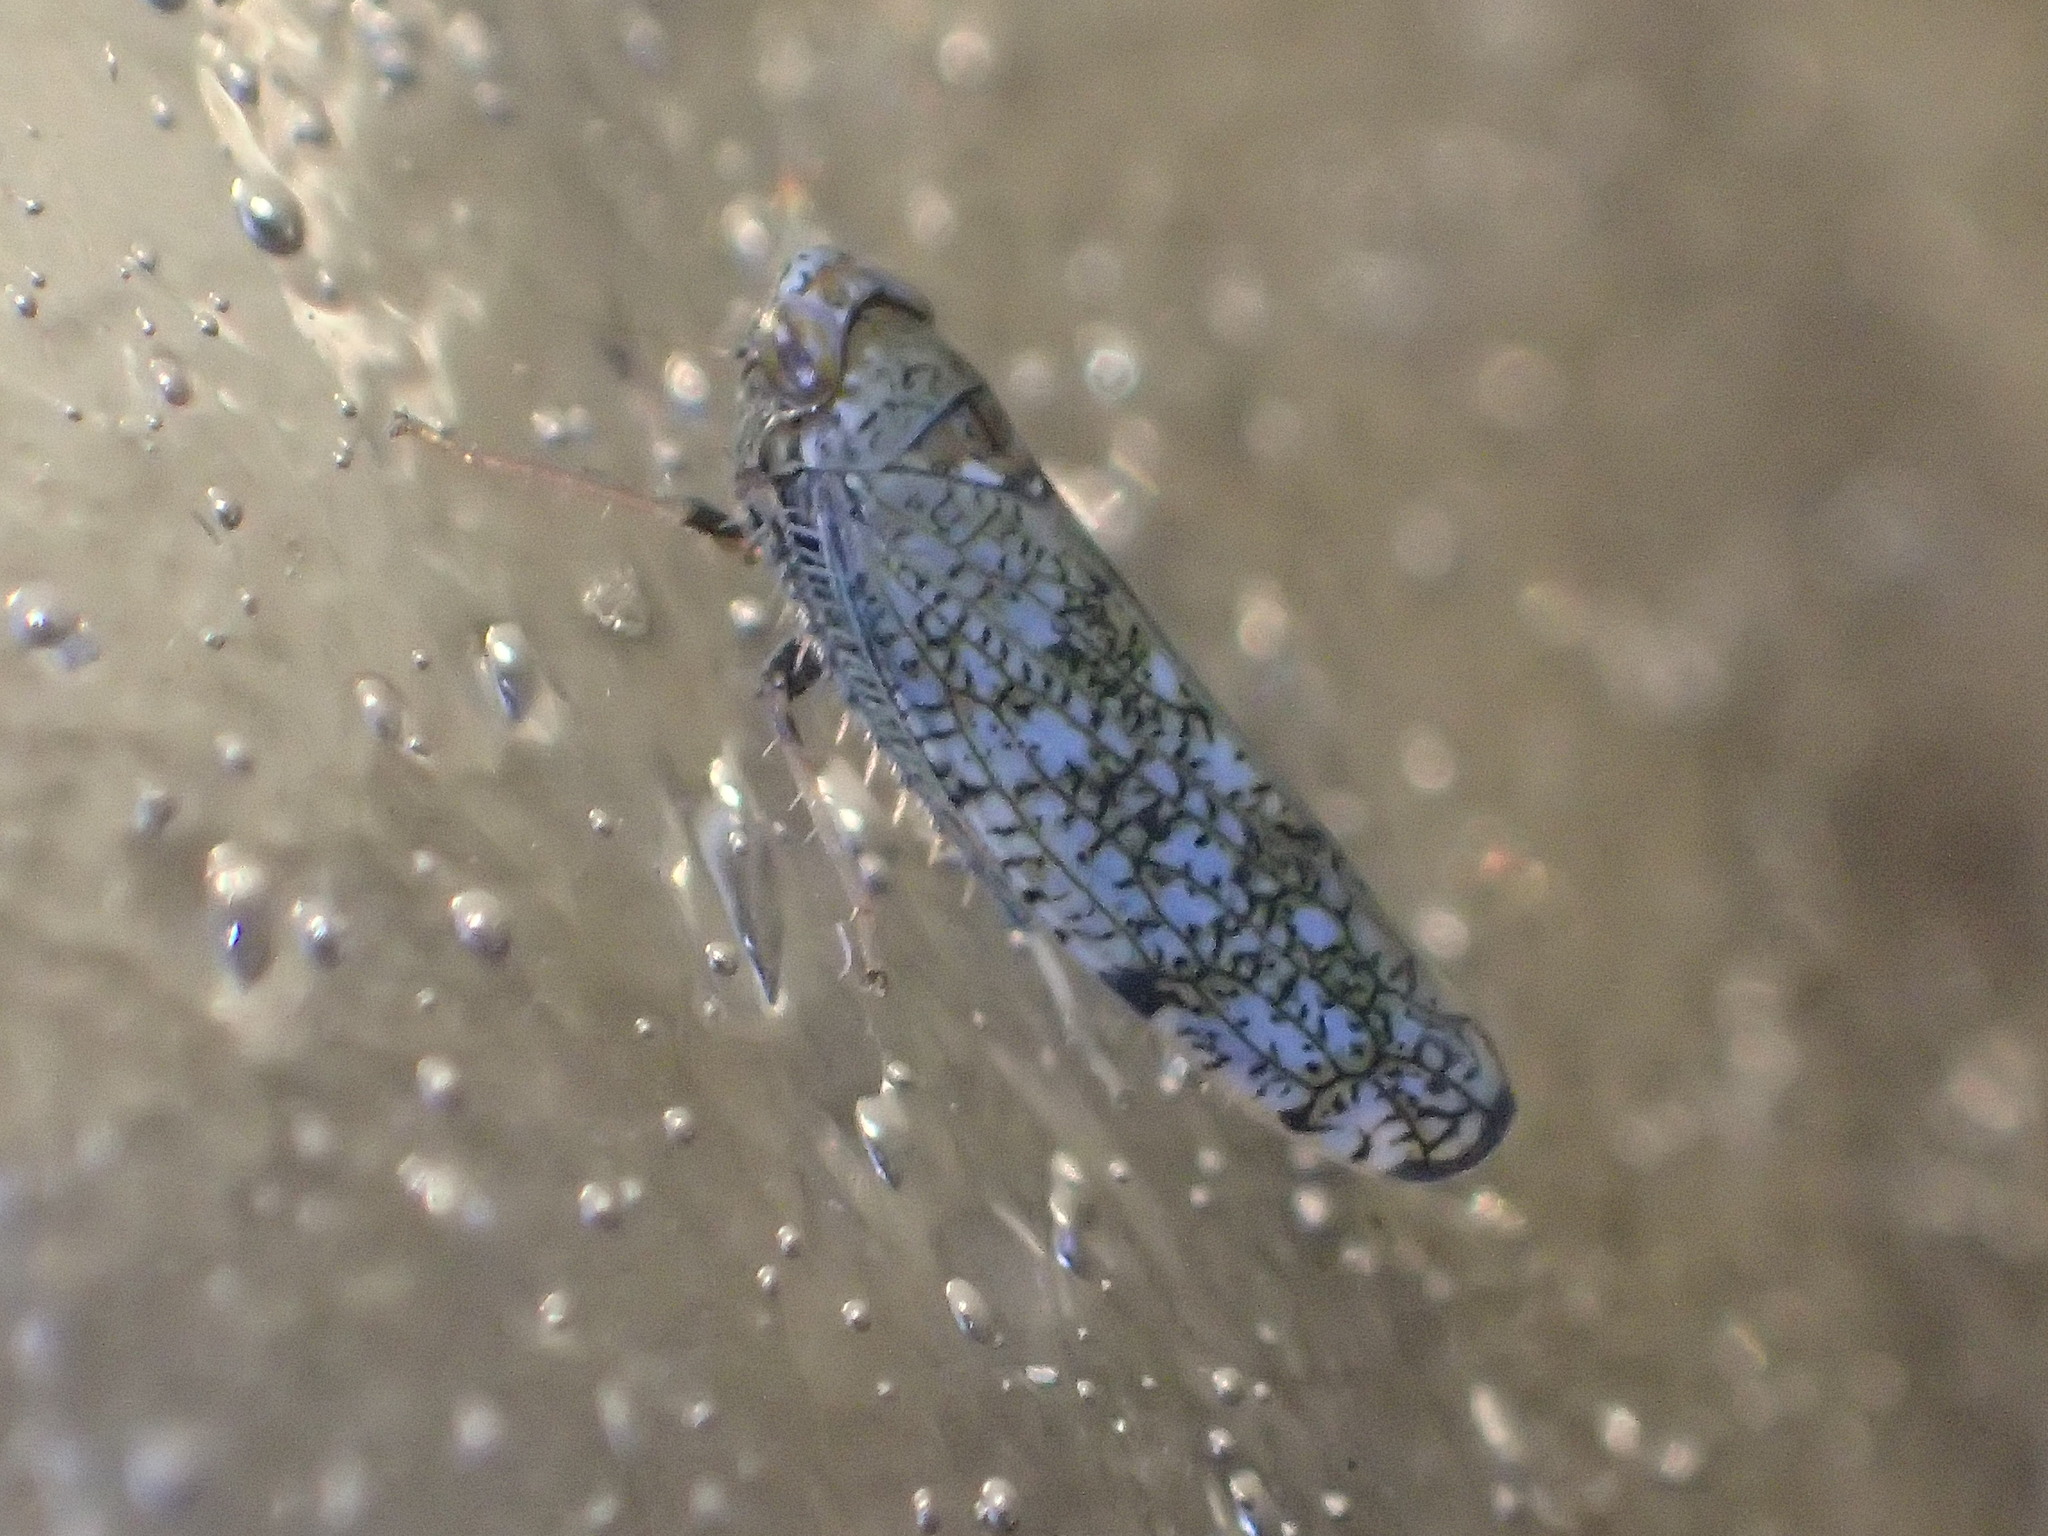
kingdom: Animalia
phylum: Arthropoda
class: Insecta
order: Hemiptera
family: Cicadellidae
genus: Orientus
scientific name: Orientus ishidae
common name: Japanese leafhopper
